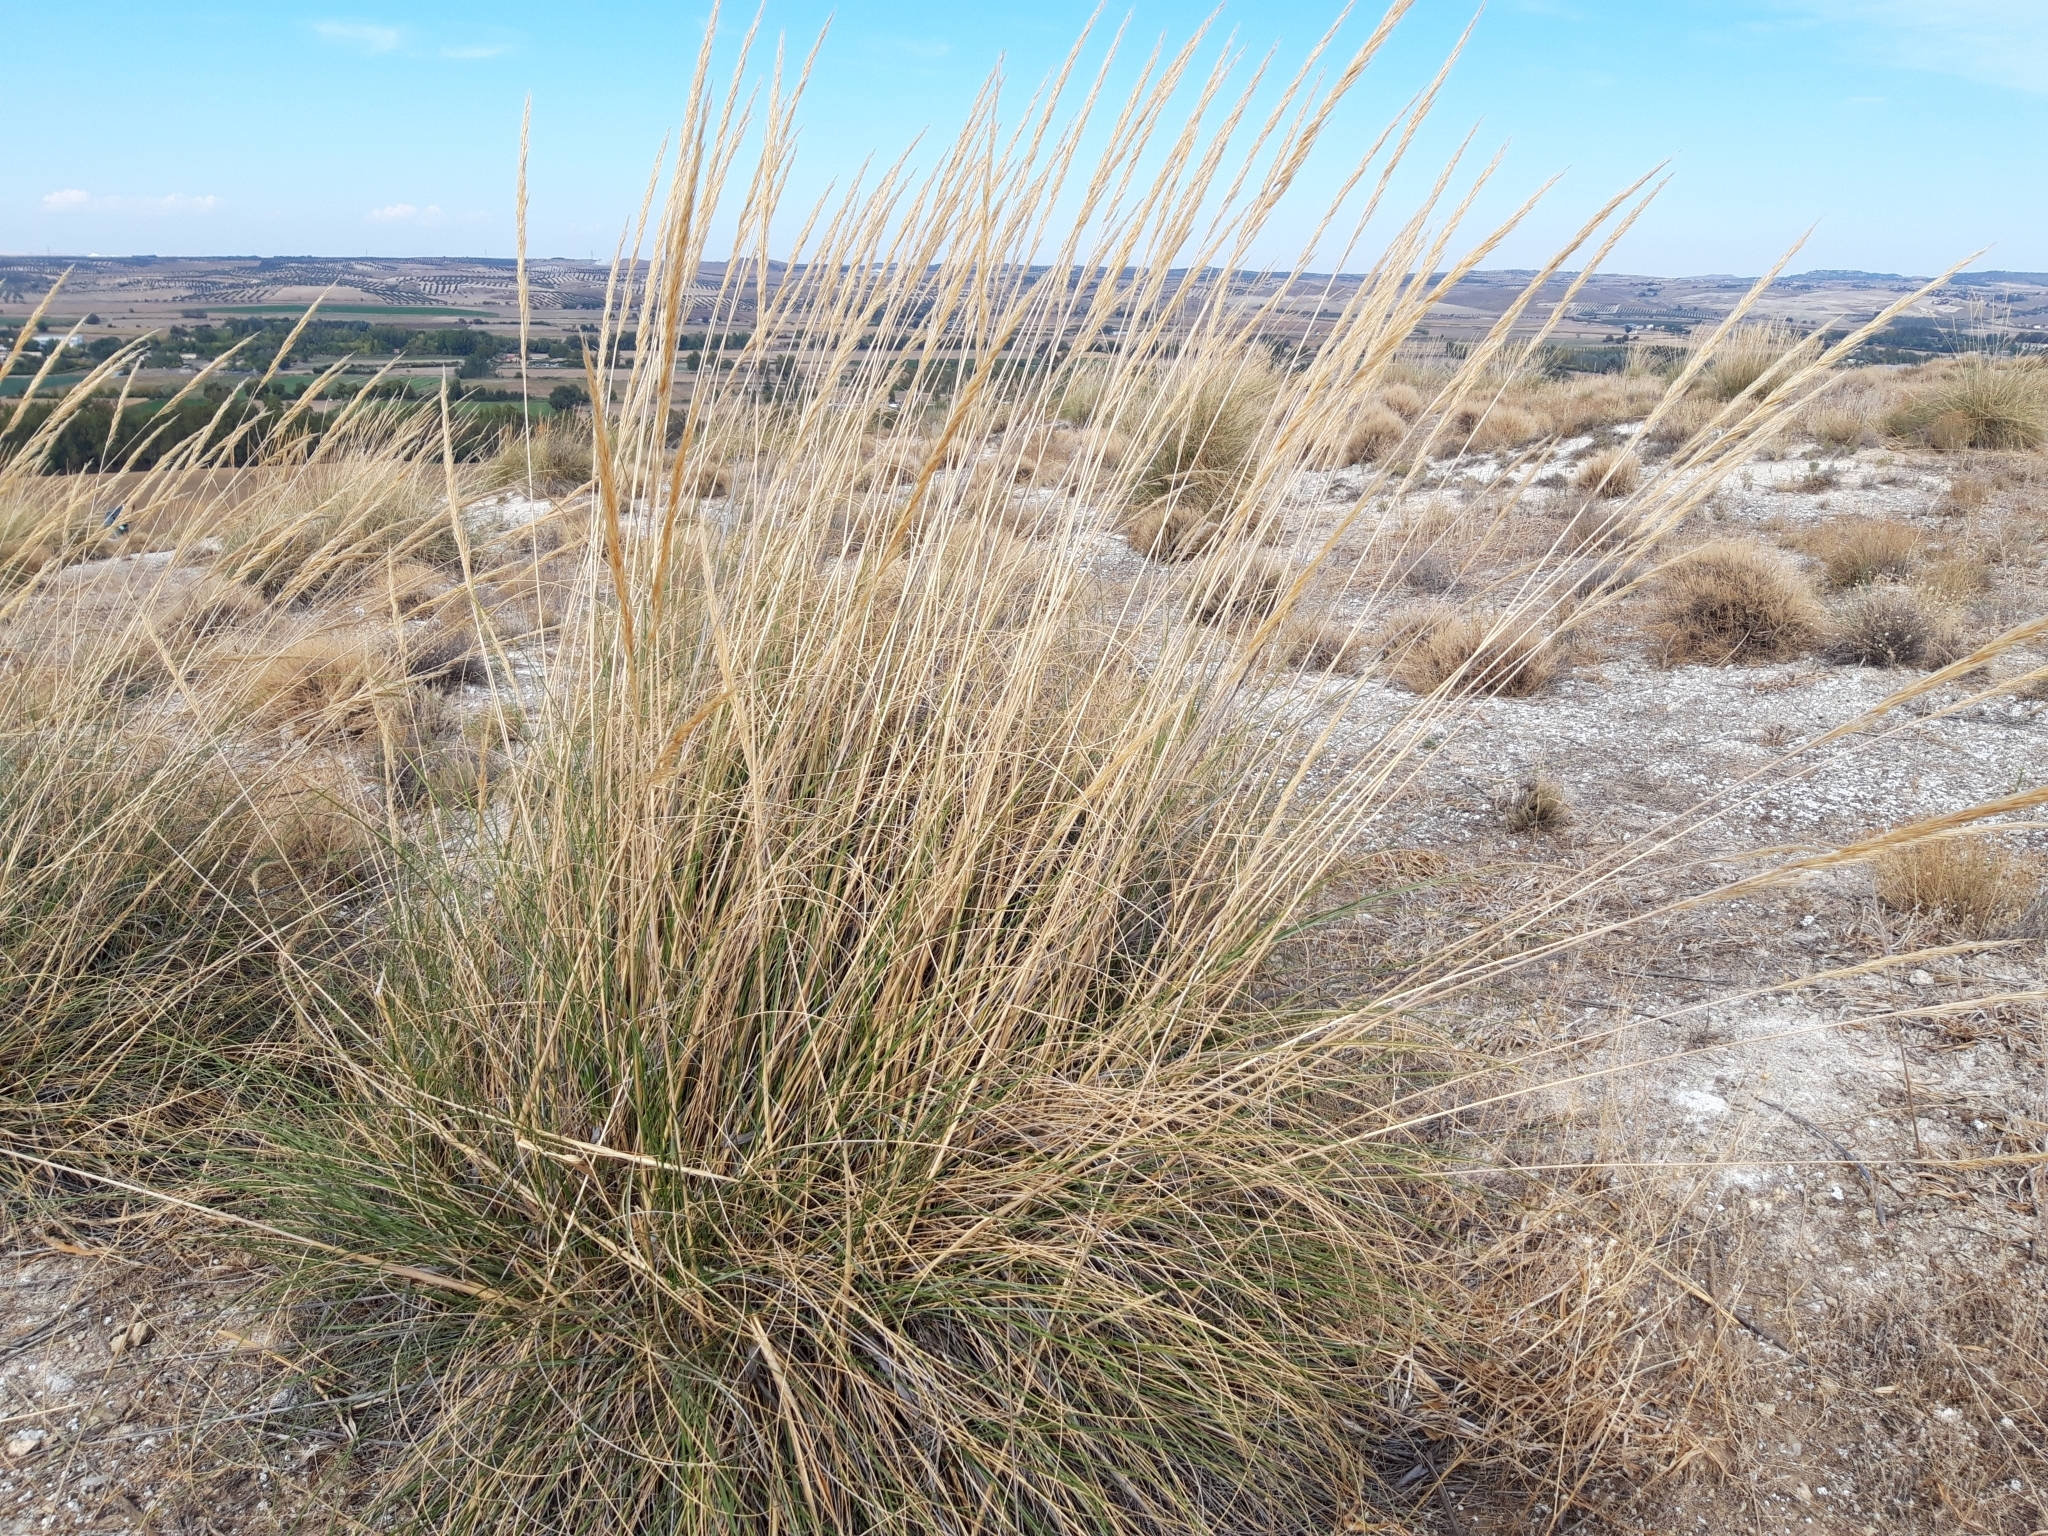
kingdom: Plantae
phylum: Tracheophyta
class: Liliopsida
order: Poales
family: Poaceae
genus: Macrochloa
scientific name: Macrochloa tenacissima
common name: Alfa grass
